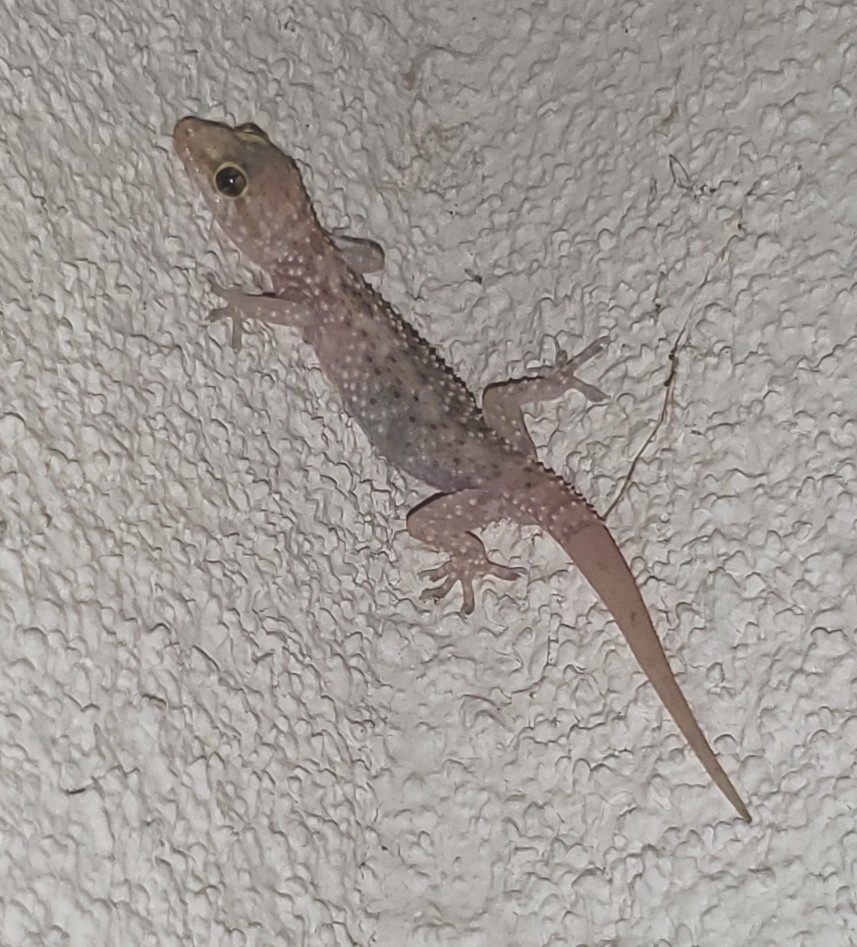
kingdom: Animalia
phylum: Chordata
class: Squamata
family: Gekkonidae
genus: Hemidactylus
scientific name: Hemidactylus turcicus
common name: Turkish gecko
